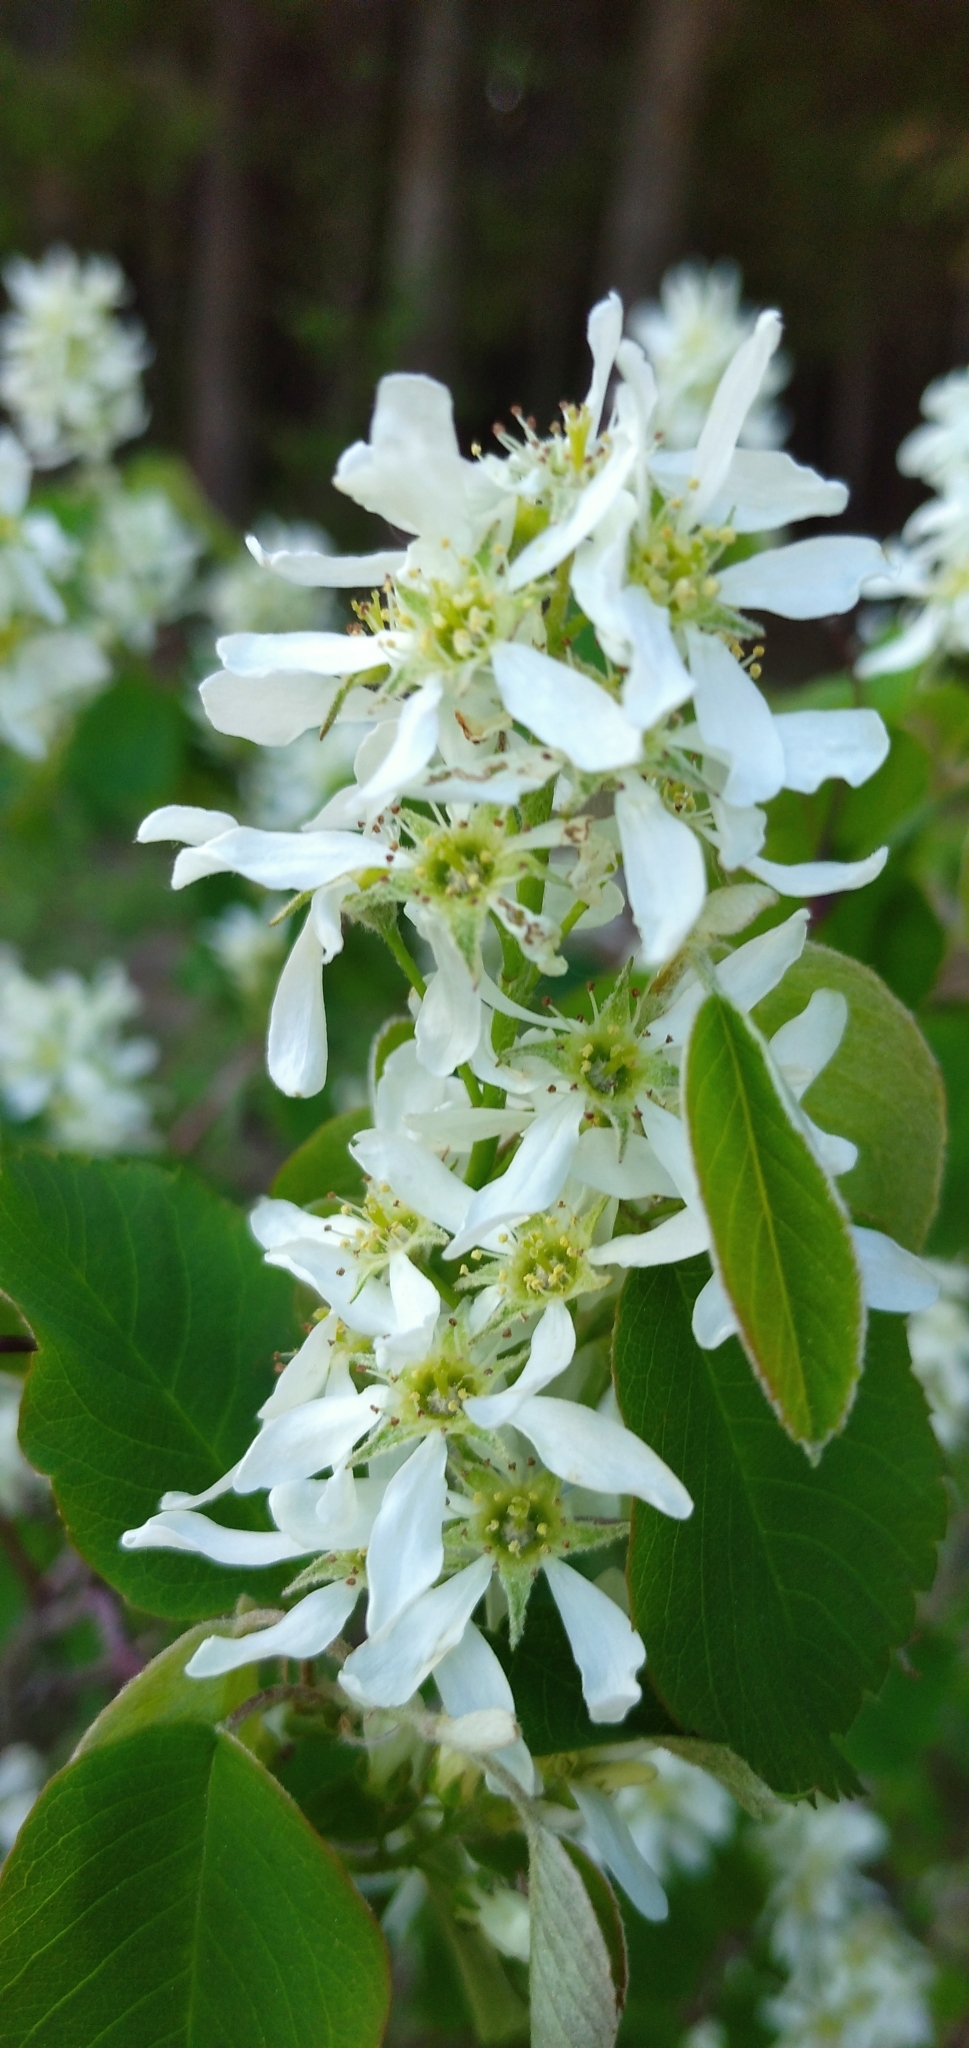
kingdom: Plantae
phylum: Tracheophyta
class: Magnoliopsida
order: Rosales
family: Rosaceae
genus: Amelanchier
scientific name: Amelanchier alnifolia
